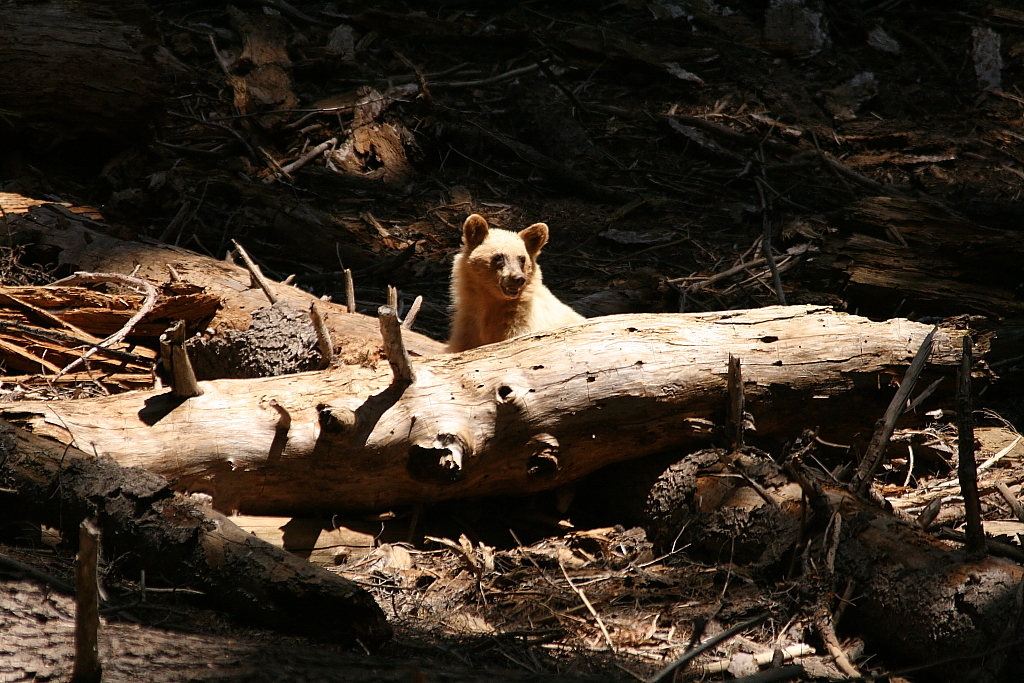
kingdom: Animalia
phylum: Chordata
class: Mammalia
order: Carnivora
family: Ursidae
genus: Ursus
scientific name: Ursus americanus
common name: American black bear
